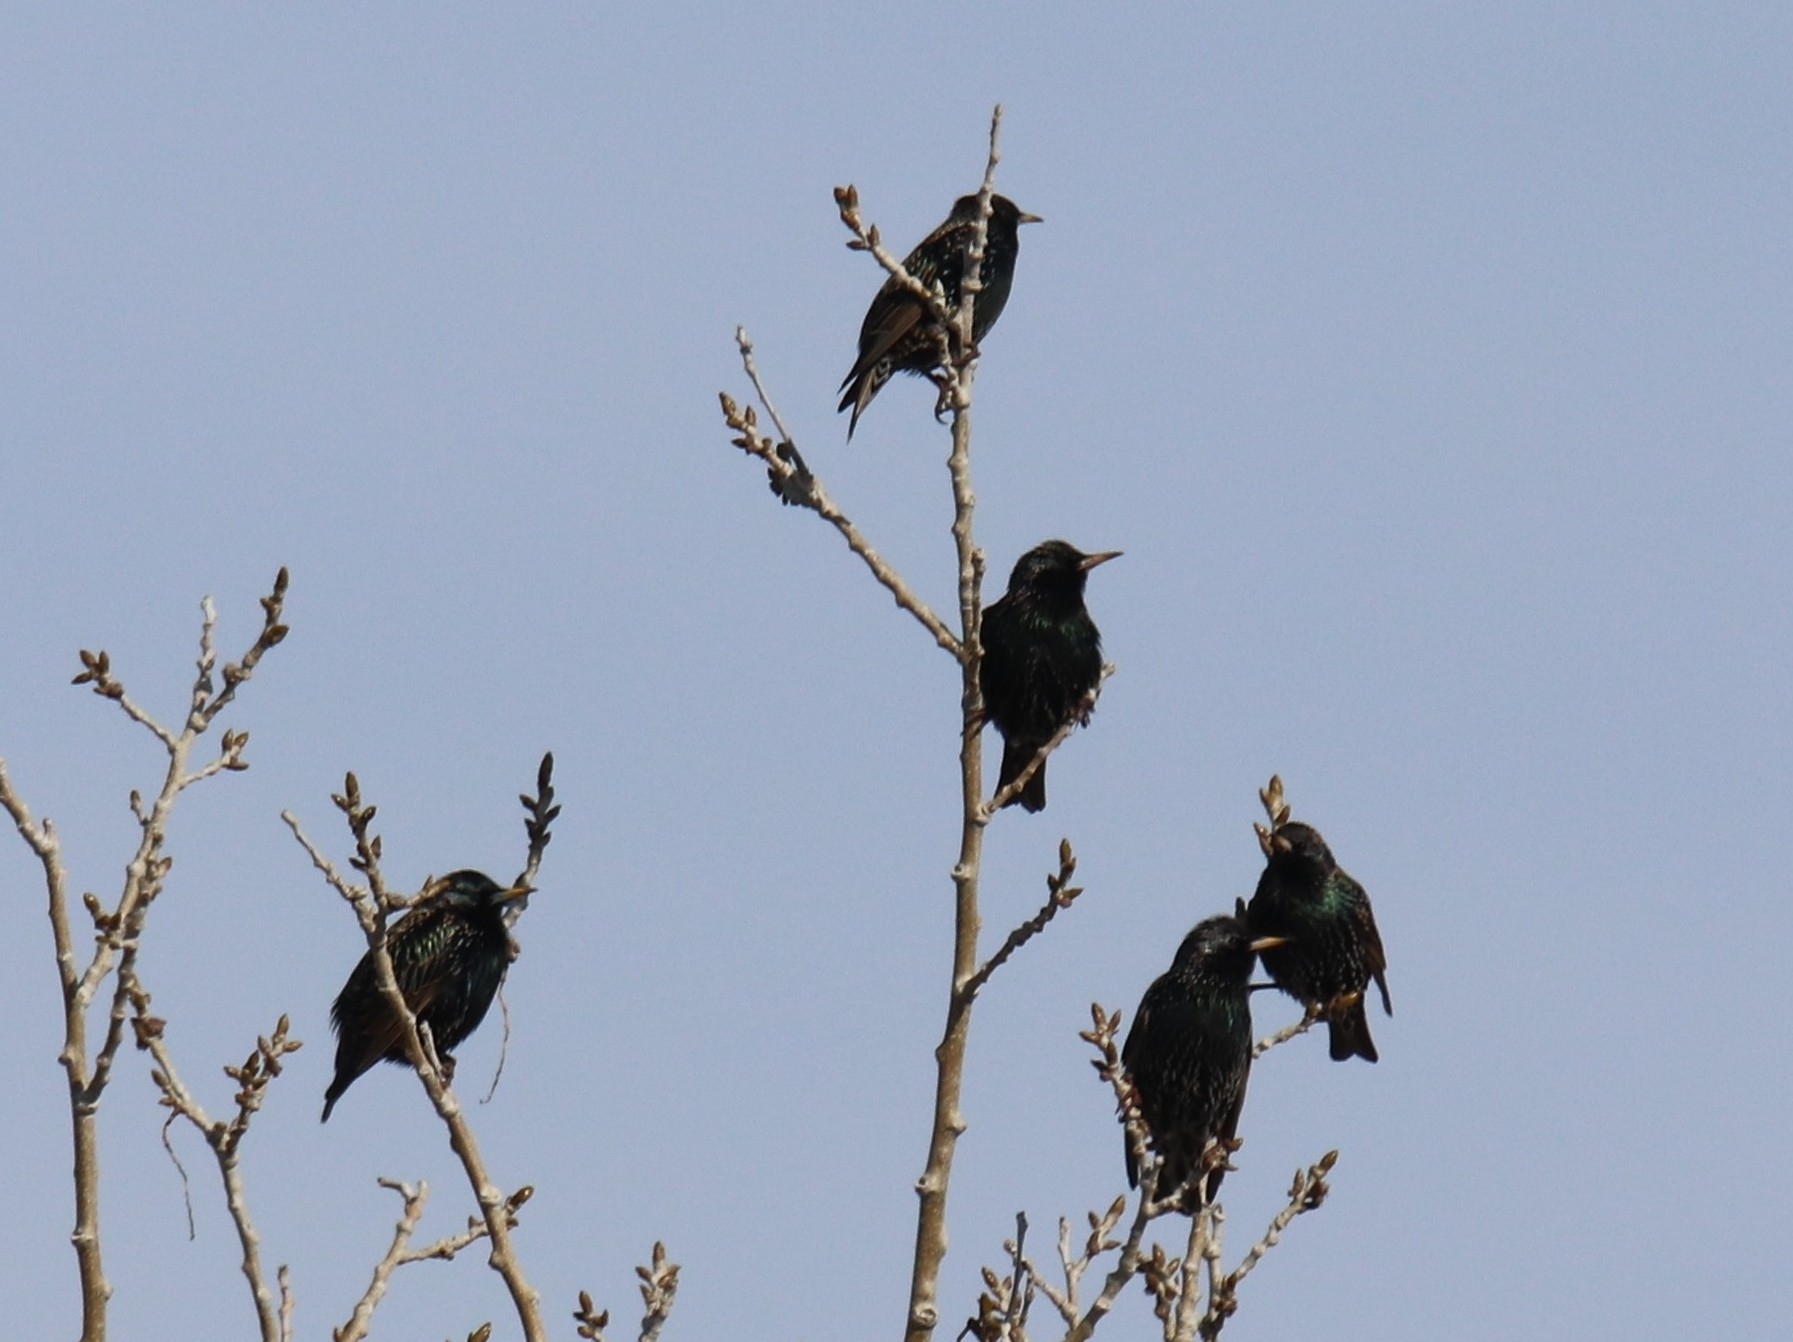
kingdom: Animalia
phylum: Chordata
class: Aves
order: Passeriformes
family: Sturnidae
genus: Sturnus
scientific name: Sturnus vulgaris
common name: Common starling
